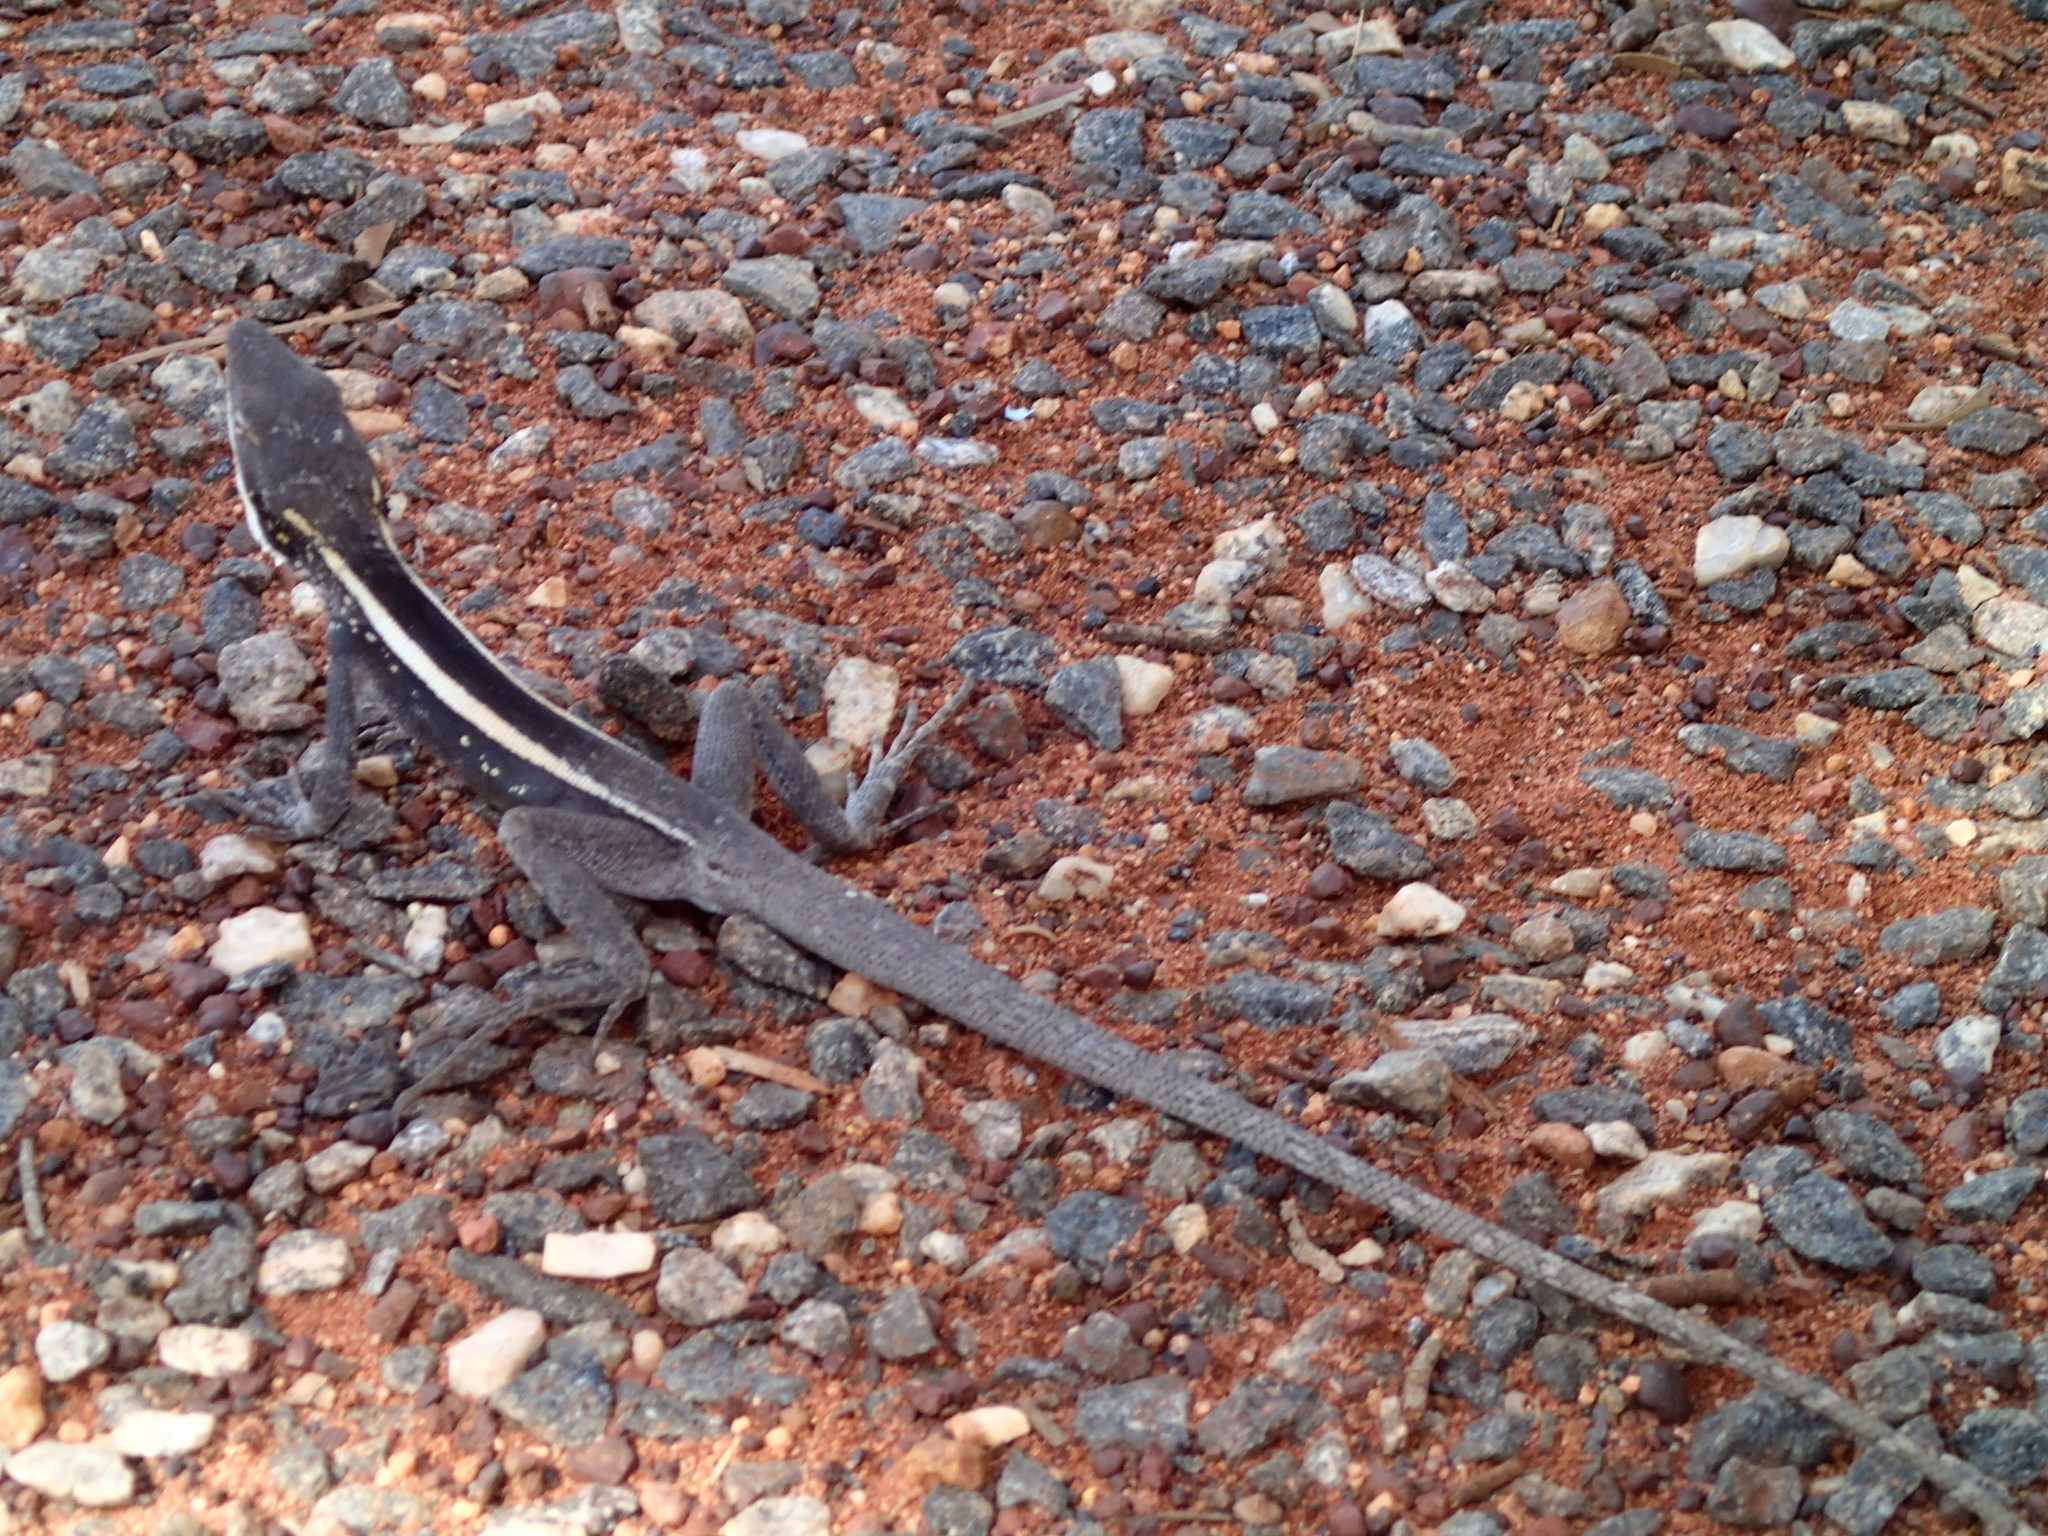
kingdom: Animalia
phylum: Chordata
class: Squamata
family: Agamidae
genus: Gowidon
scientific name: Gowidon longirostris
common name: Long-nosed water dragon
